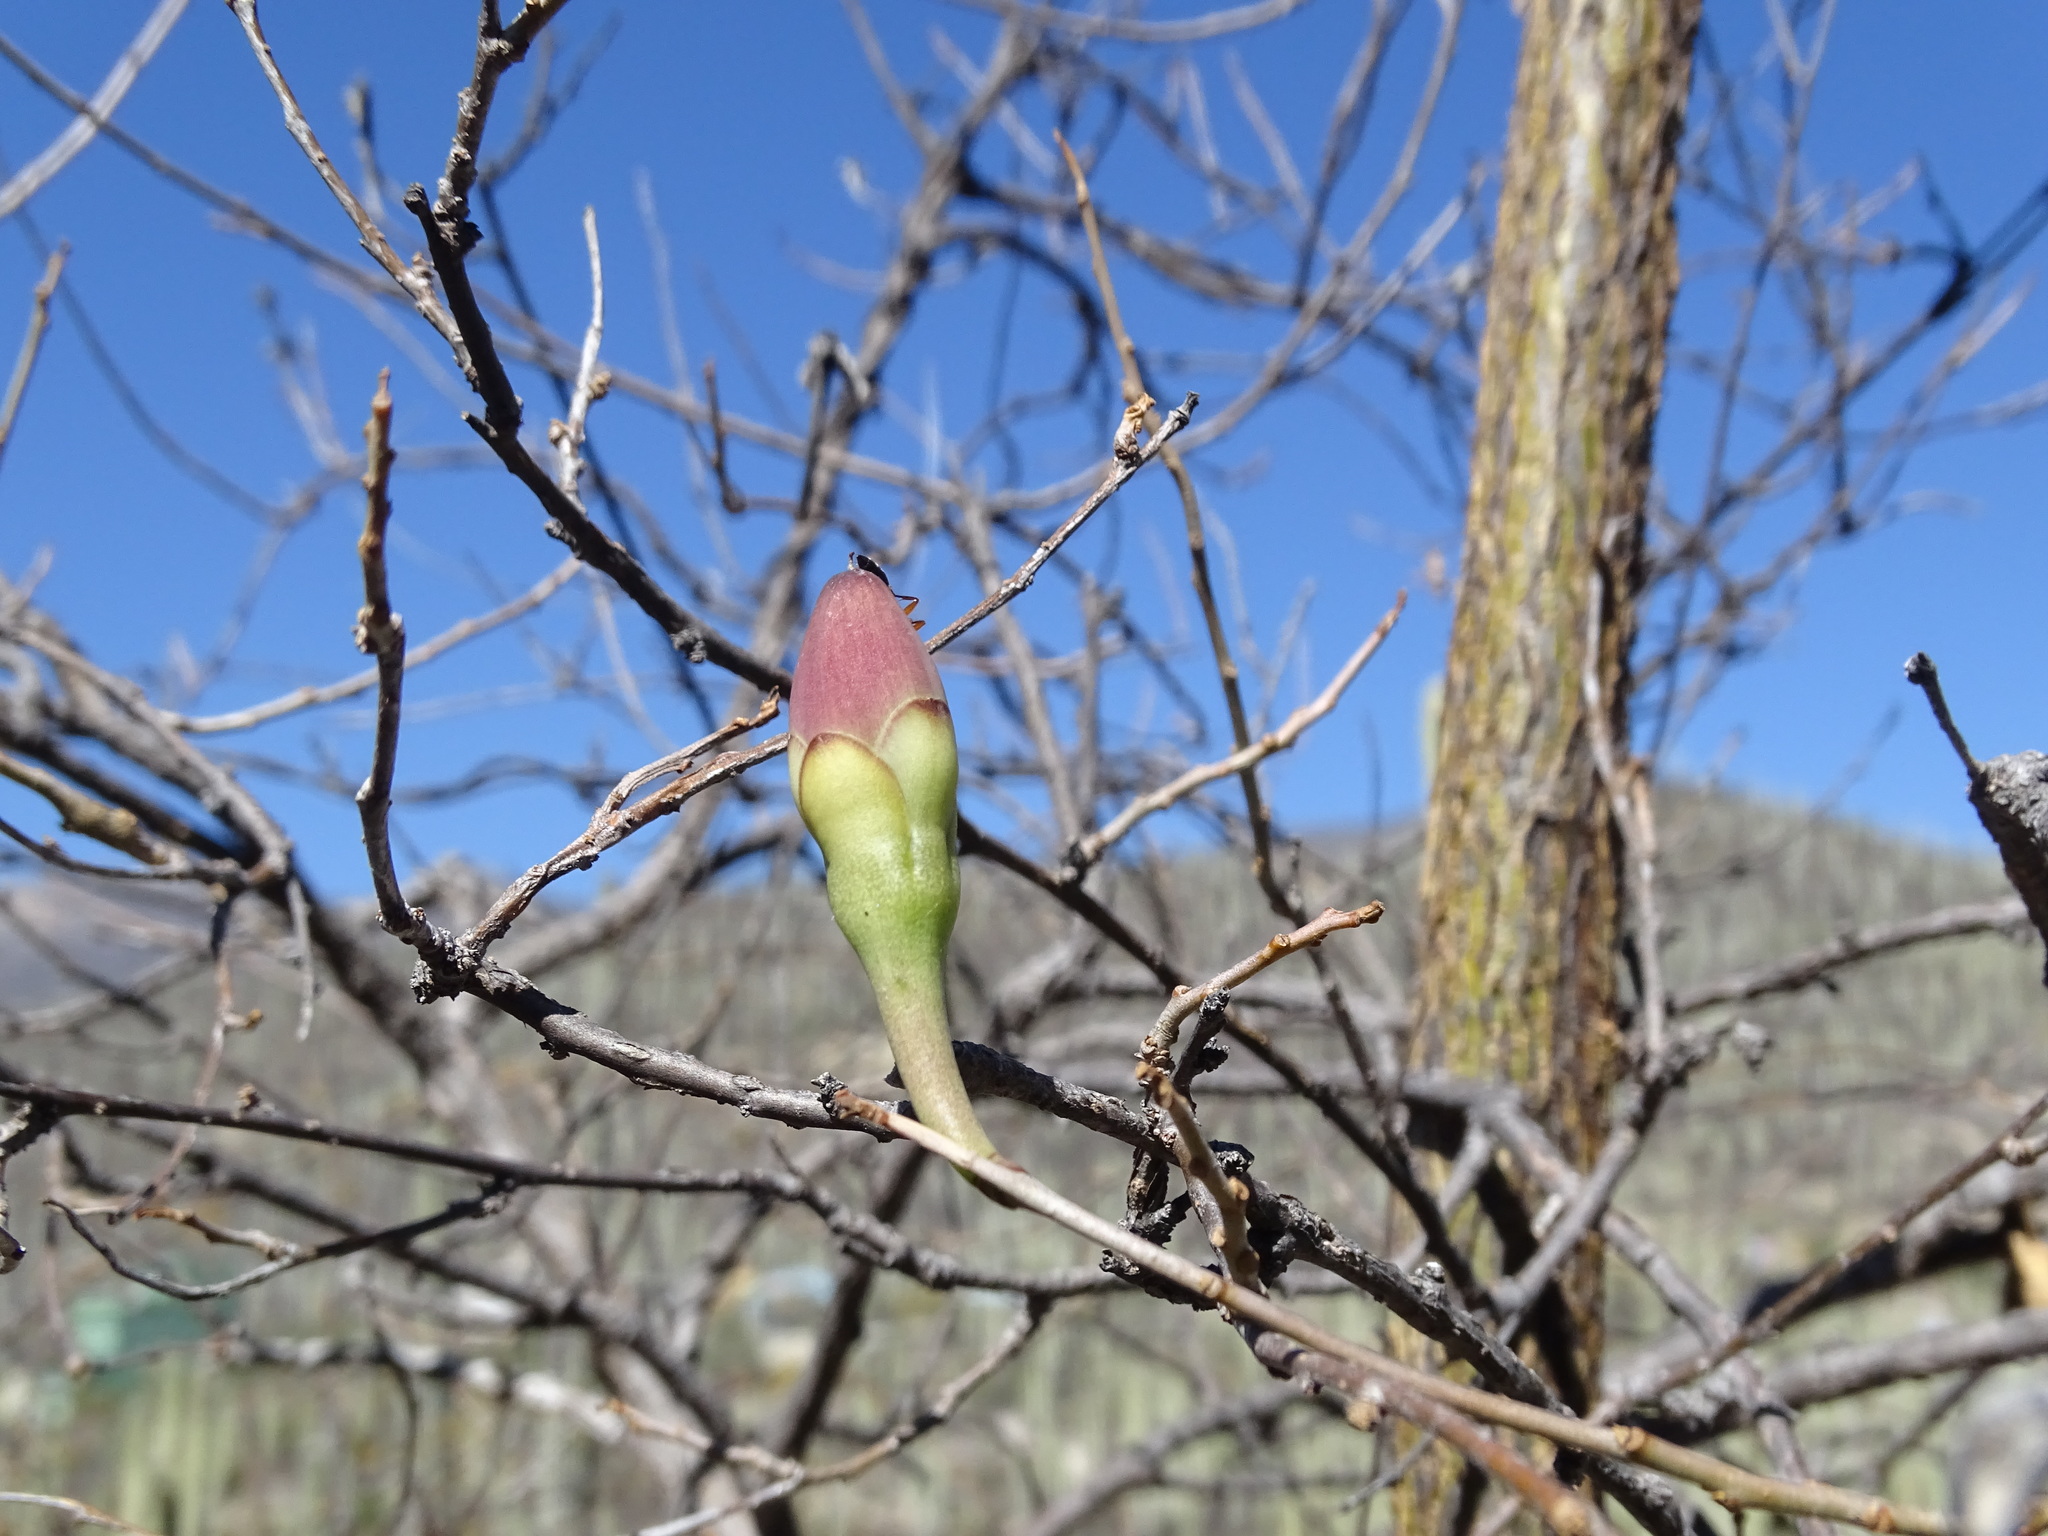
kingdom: Plantae
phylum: Tracheophyta
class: Magnoliopsida
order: Solanales
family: Convolvulaceae
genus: Ipomoea
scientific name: Ipomoea pauciflora
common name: Tree morningglory
